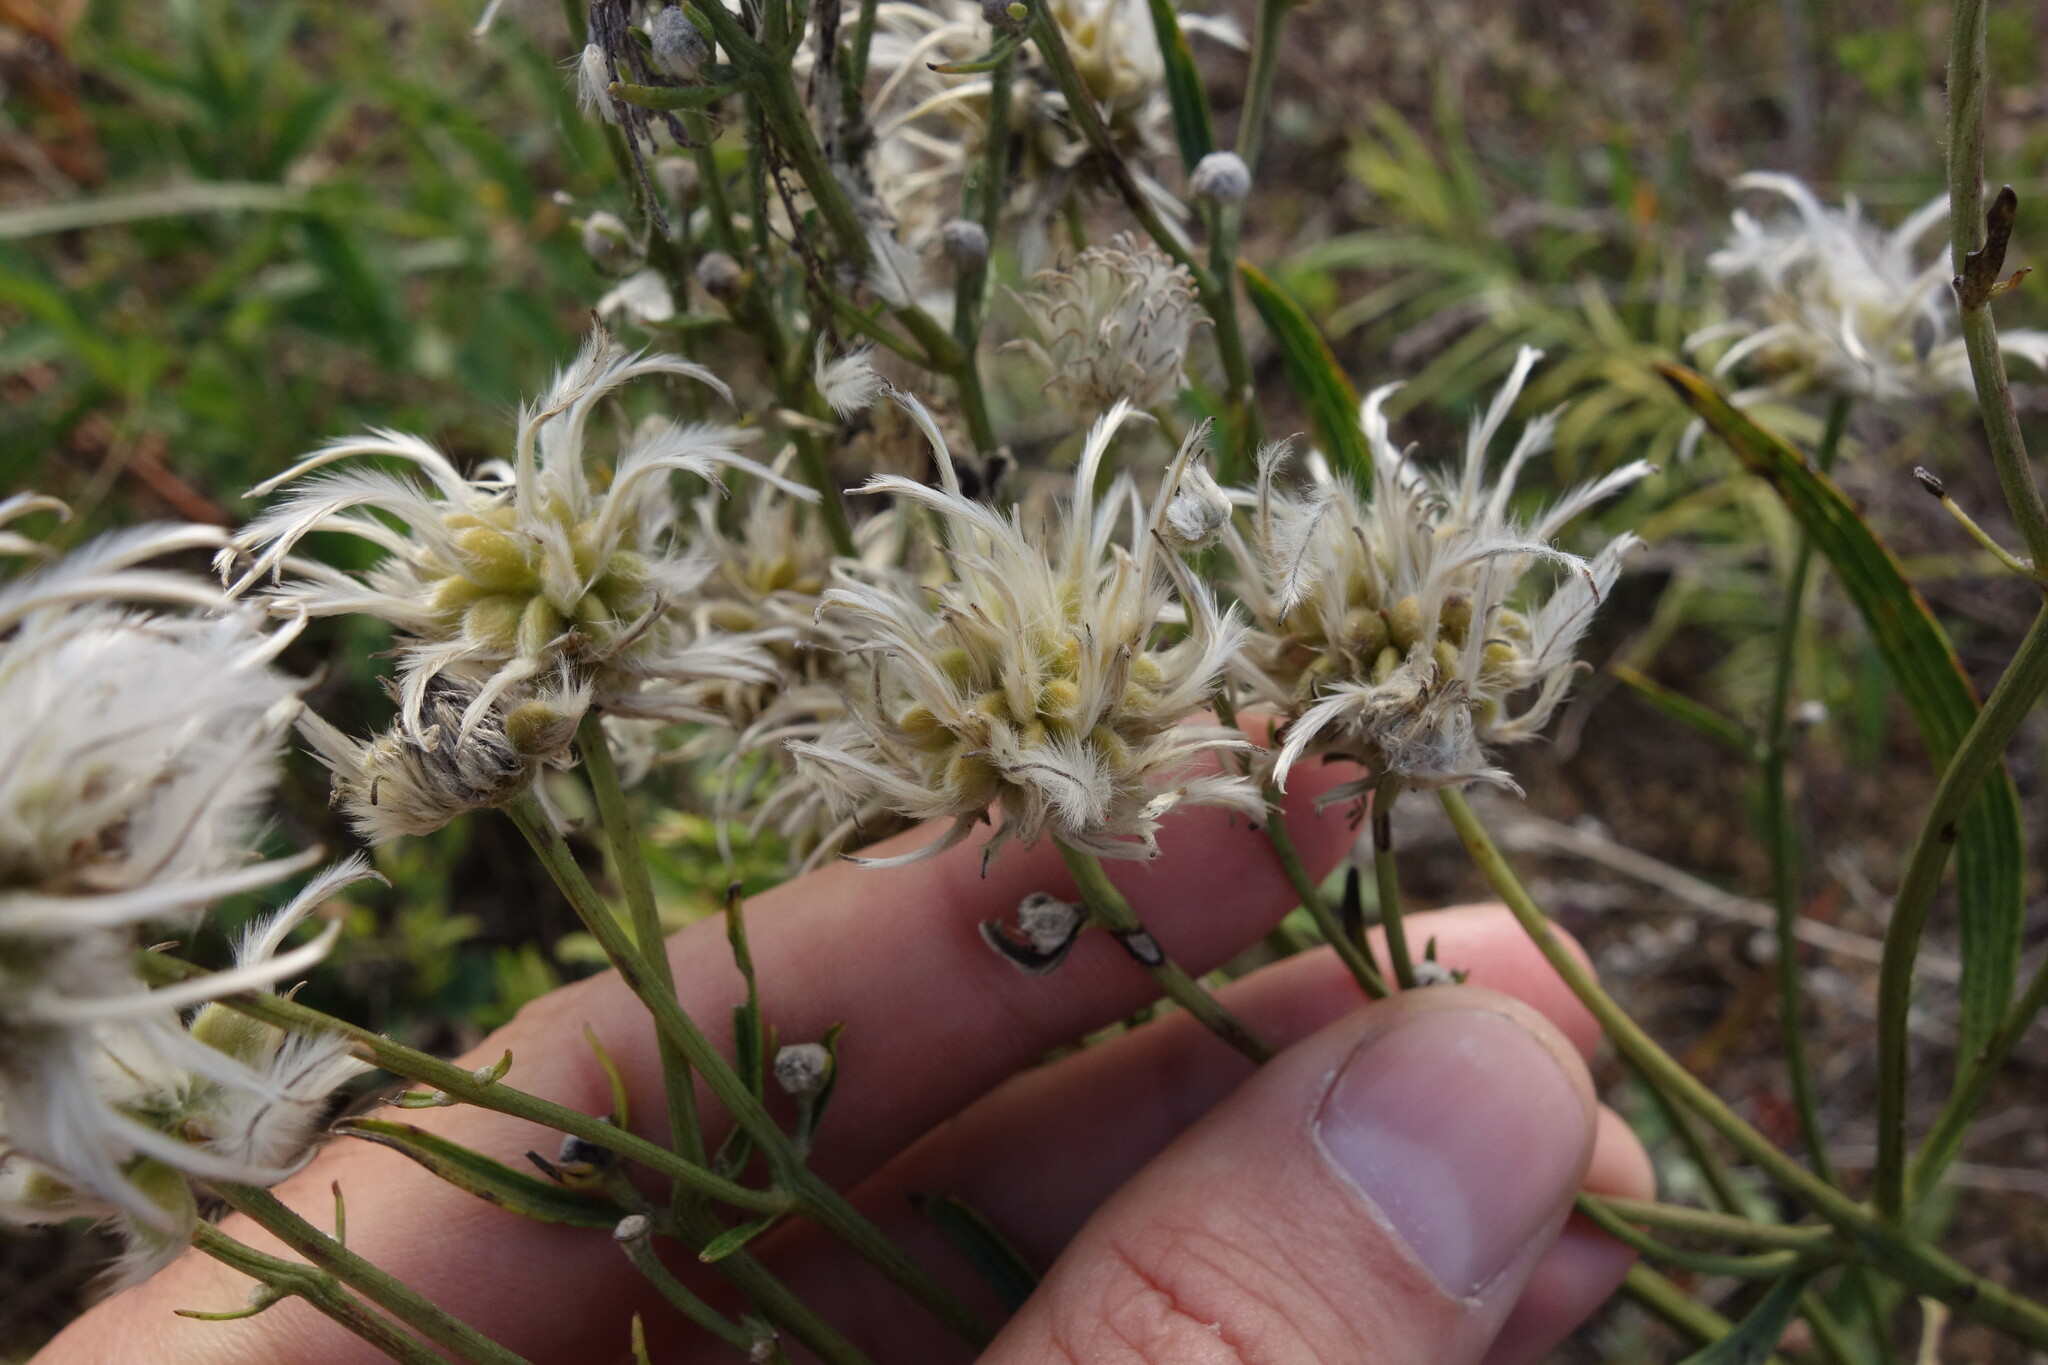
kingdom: Plantae
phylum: Tracheophyta
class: Magnoliopsida
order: Ranunculales
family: Ranunculaceae
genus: Clematis
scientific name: Clematis hexapetala
